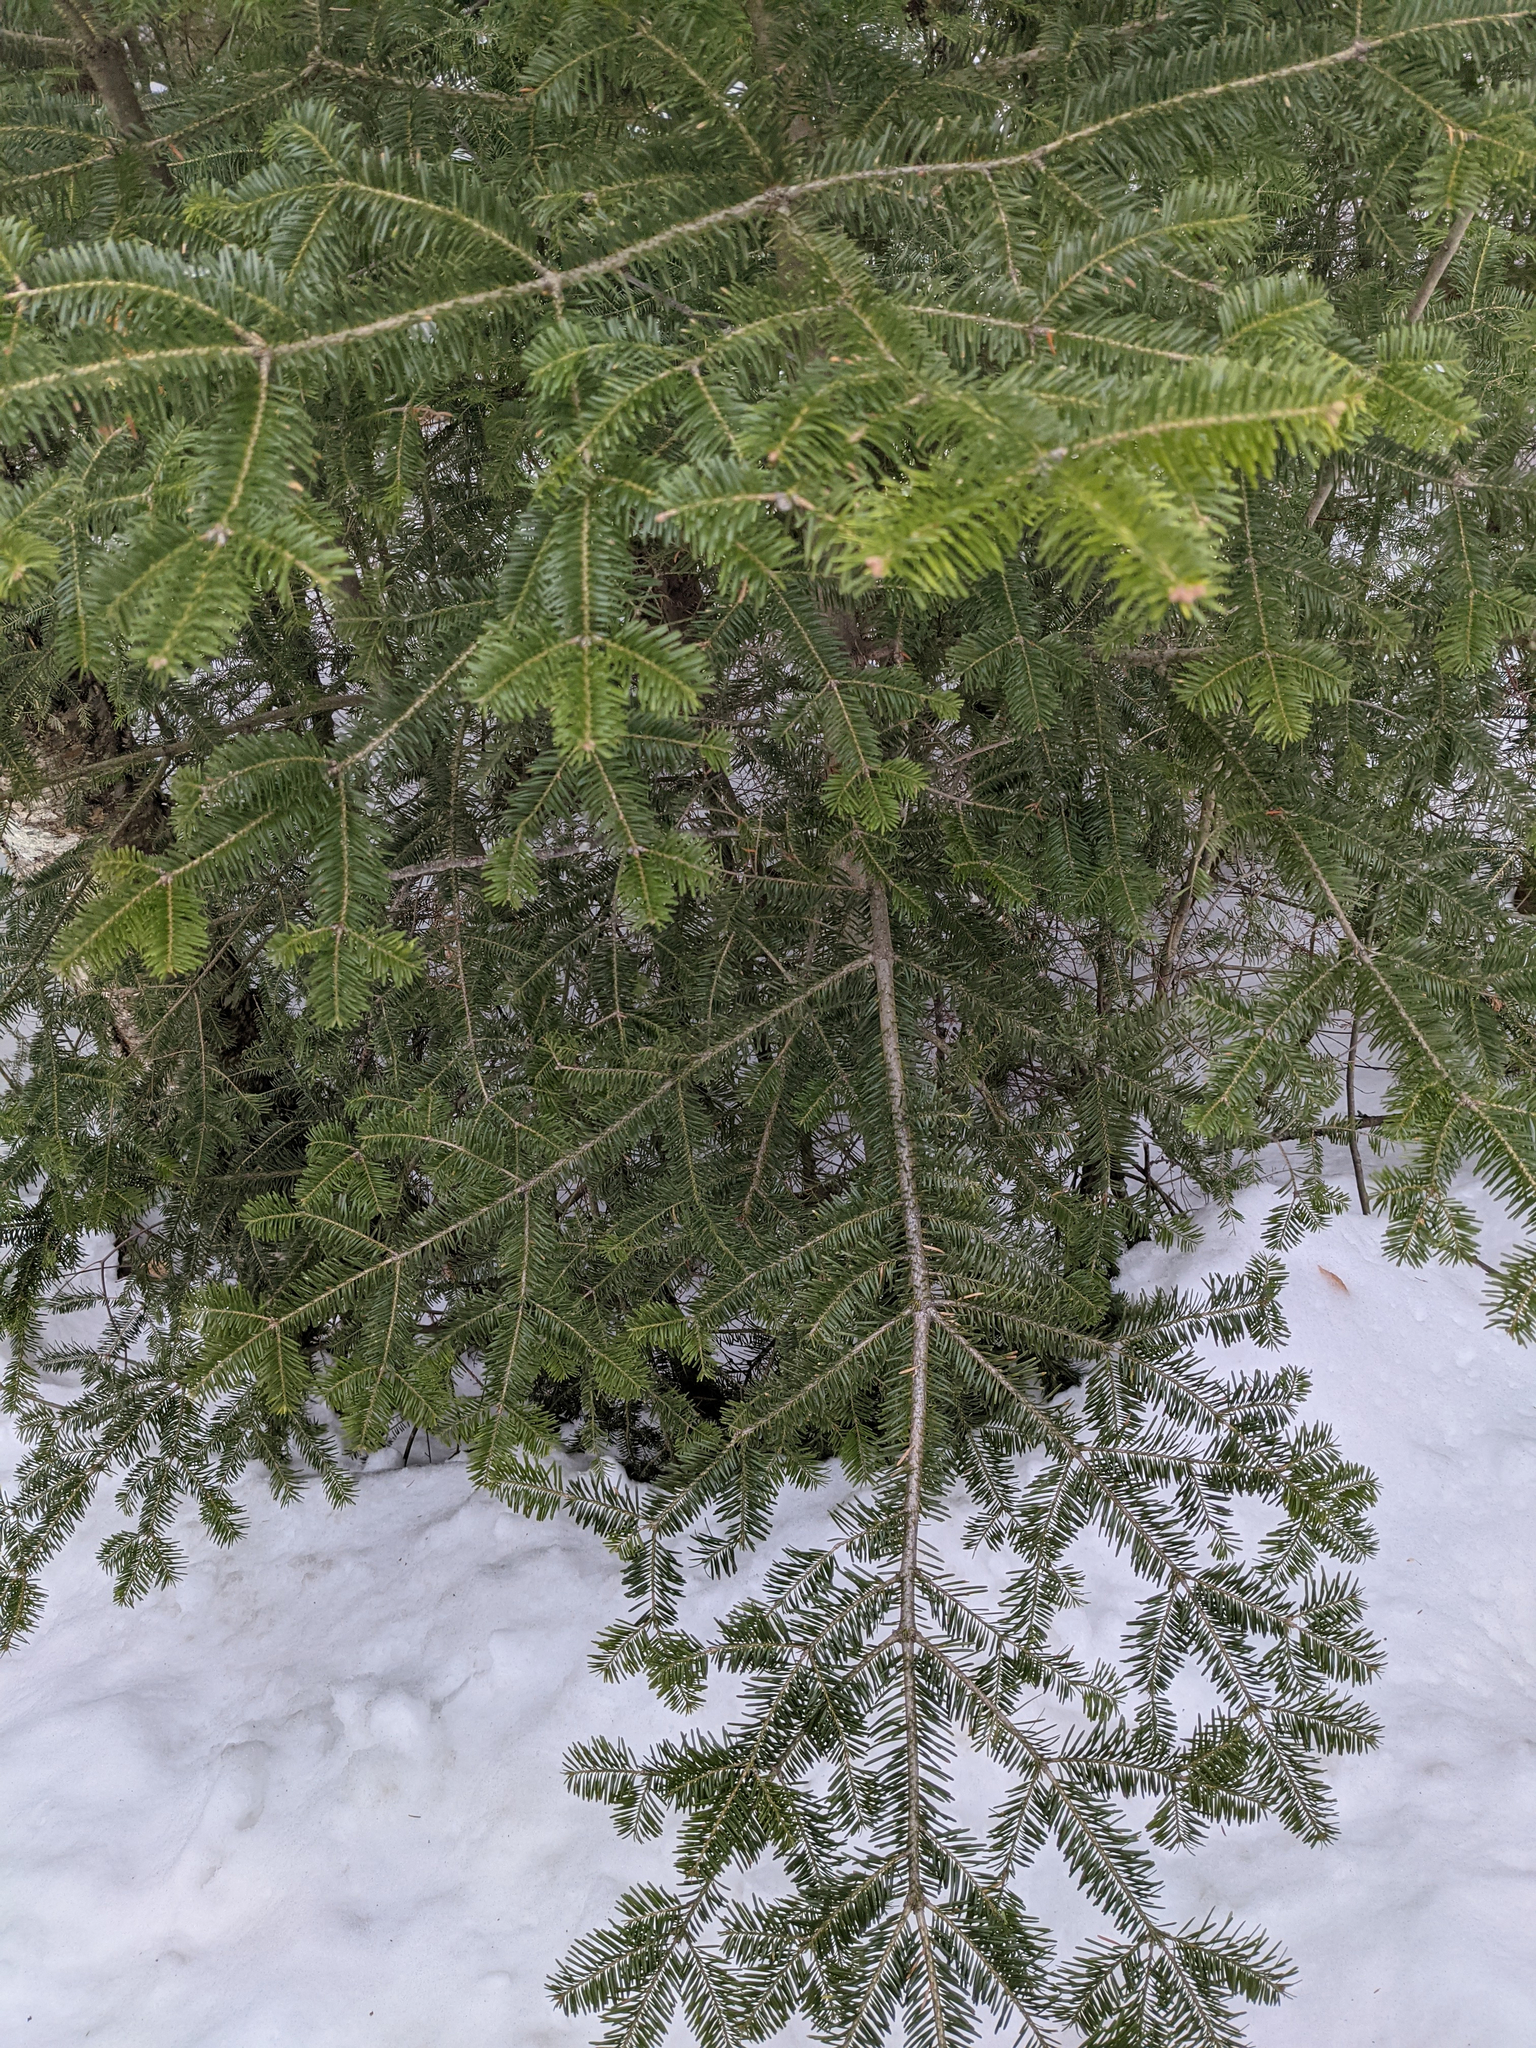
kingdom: Plantae
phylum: Tracheophyta
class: Pinopsida
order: Pinales
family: Pinaceae
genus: Abies
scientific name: Abies balsamea
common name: Balsam fir
